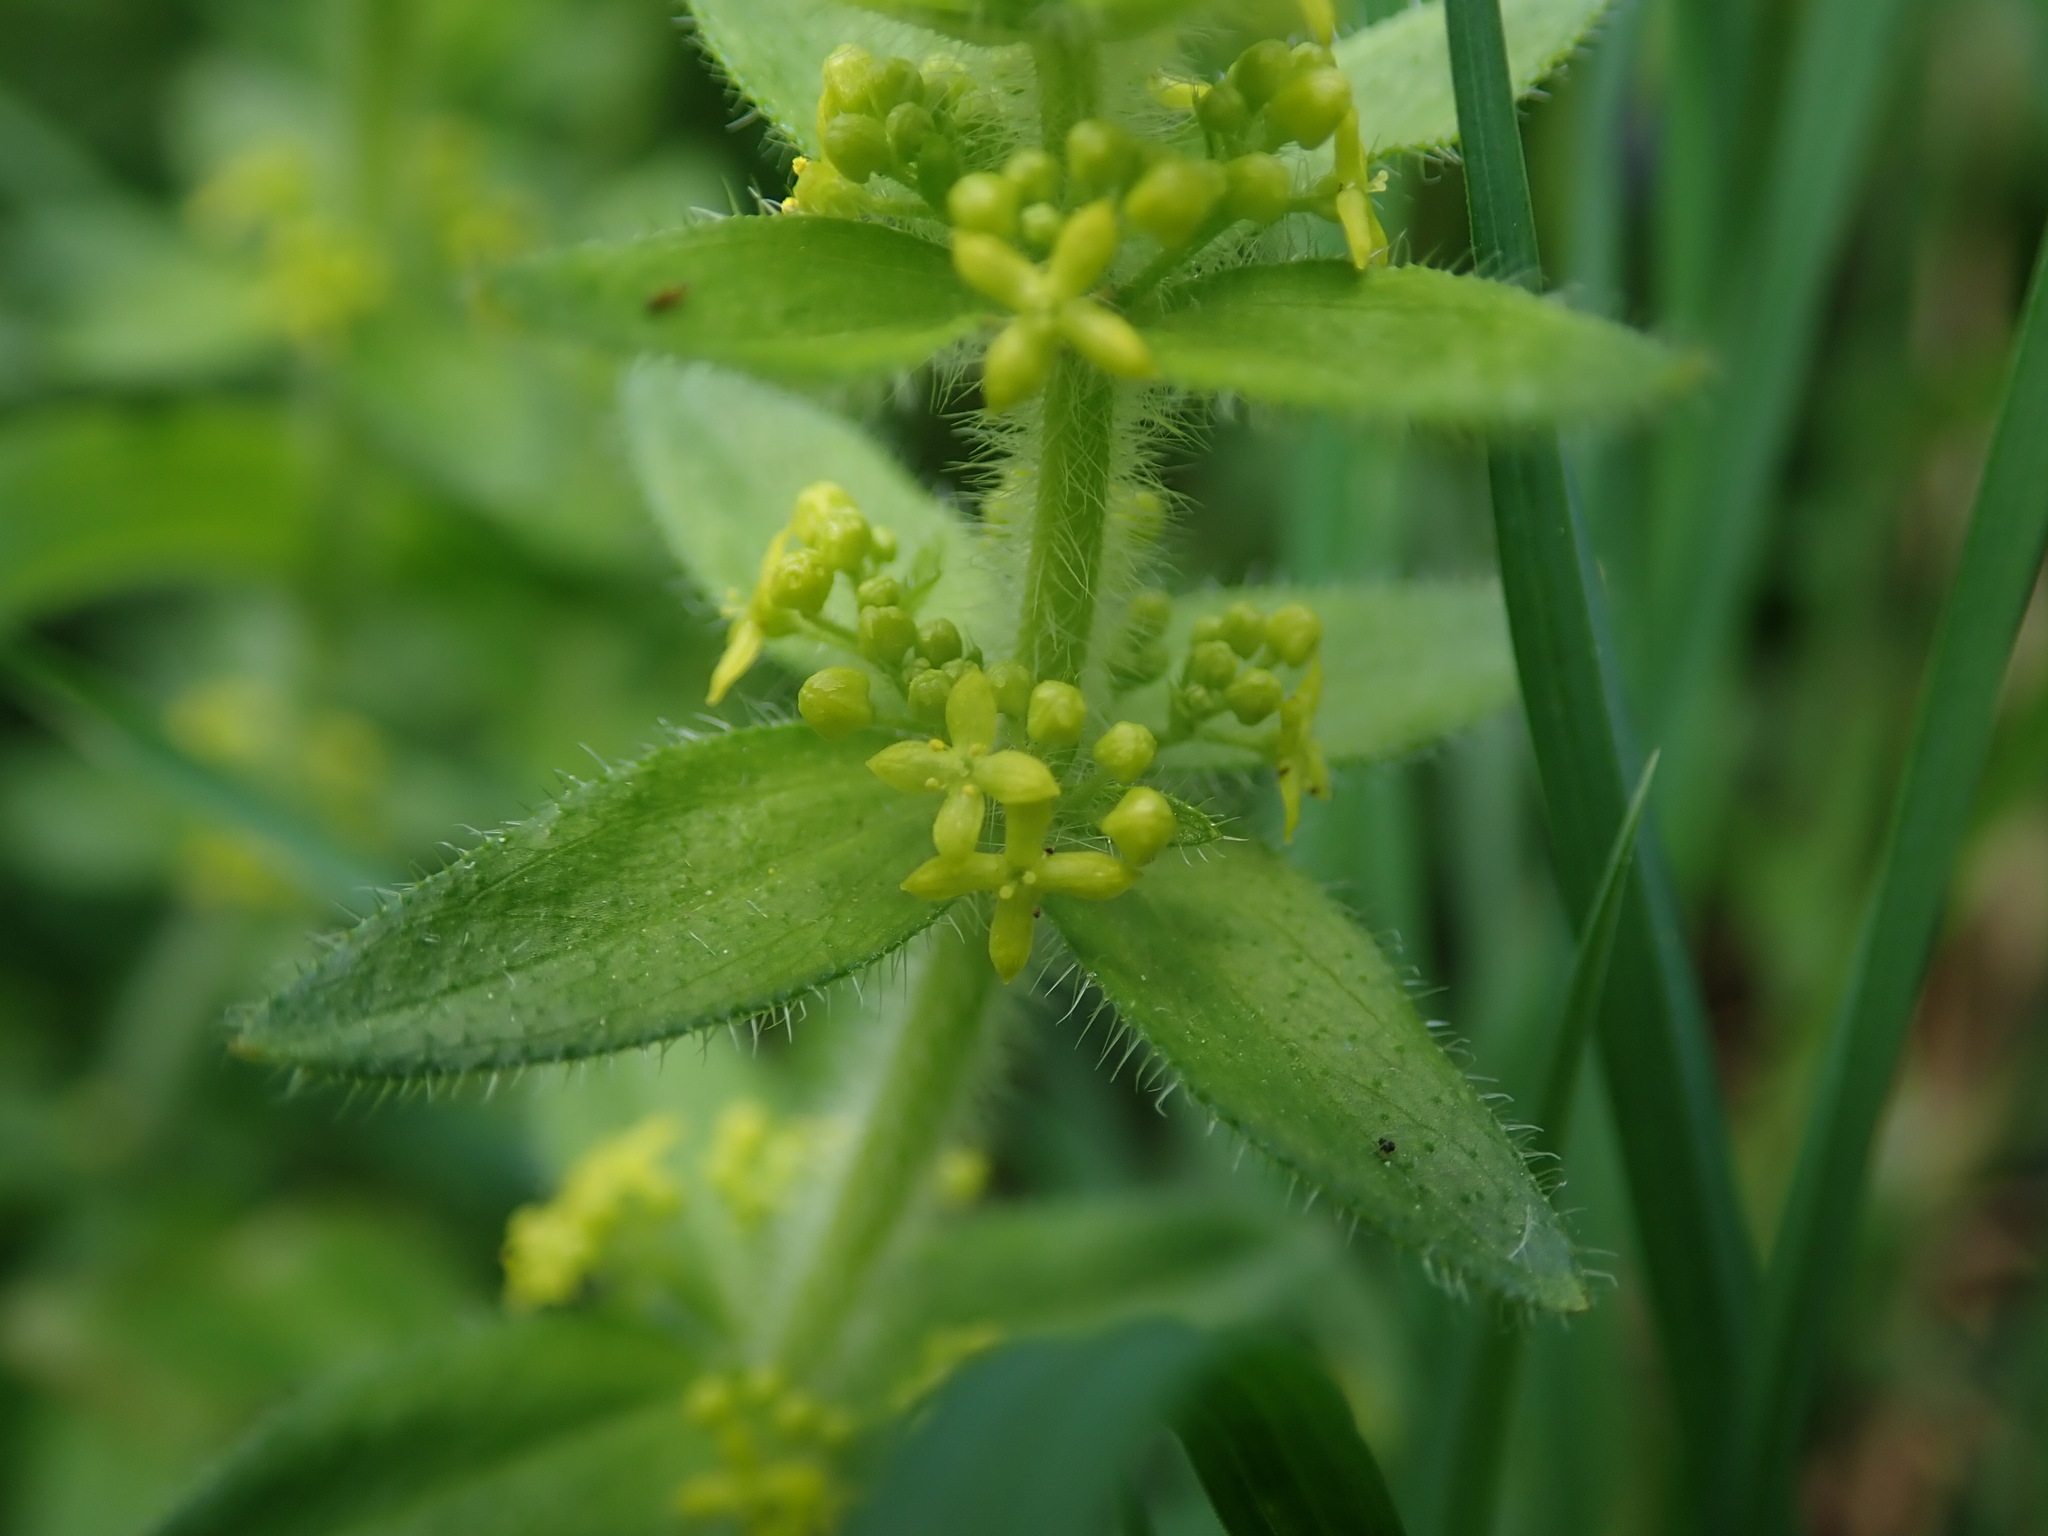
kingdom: Plantae
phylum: Tracheophyta
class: Magnoliopsida
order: Gentianales
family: Rubiaceae
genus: Cruciata
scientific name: Cruciata laevipes
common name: Crosswort
